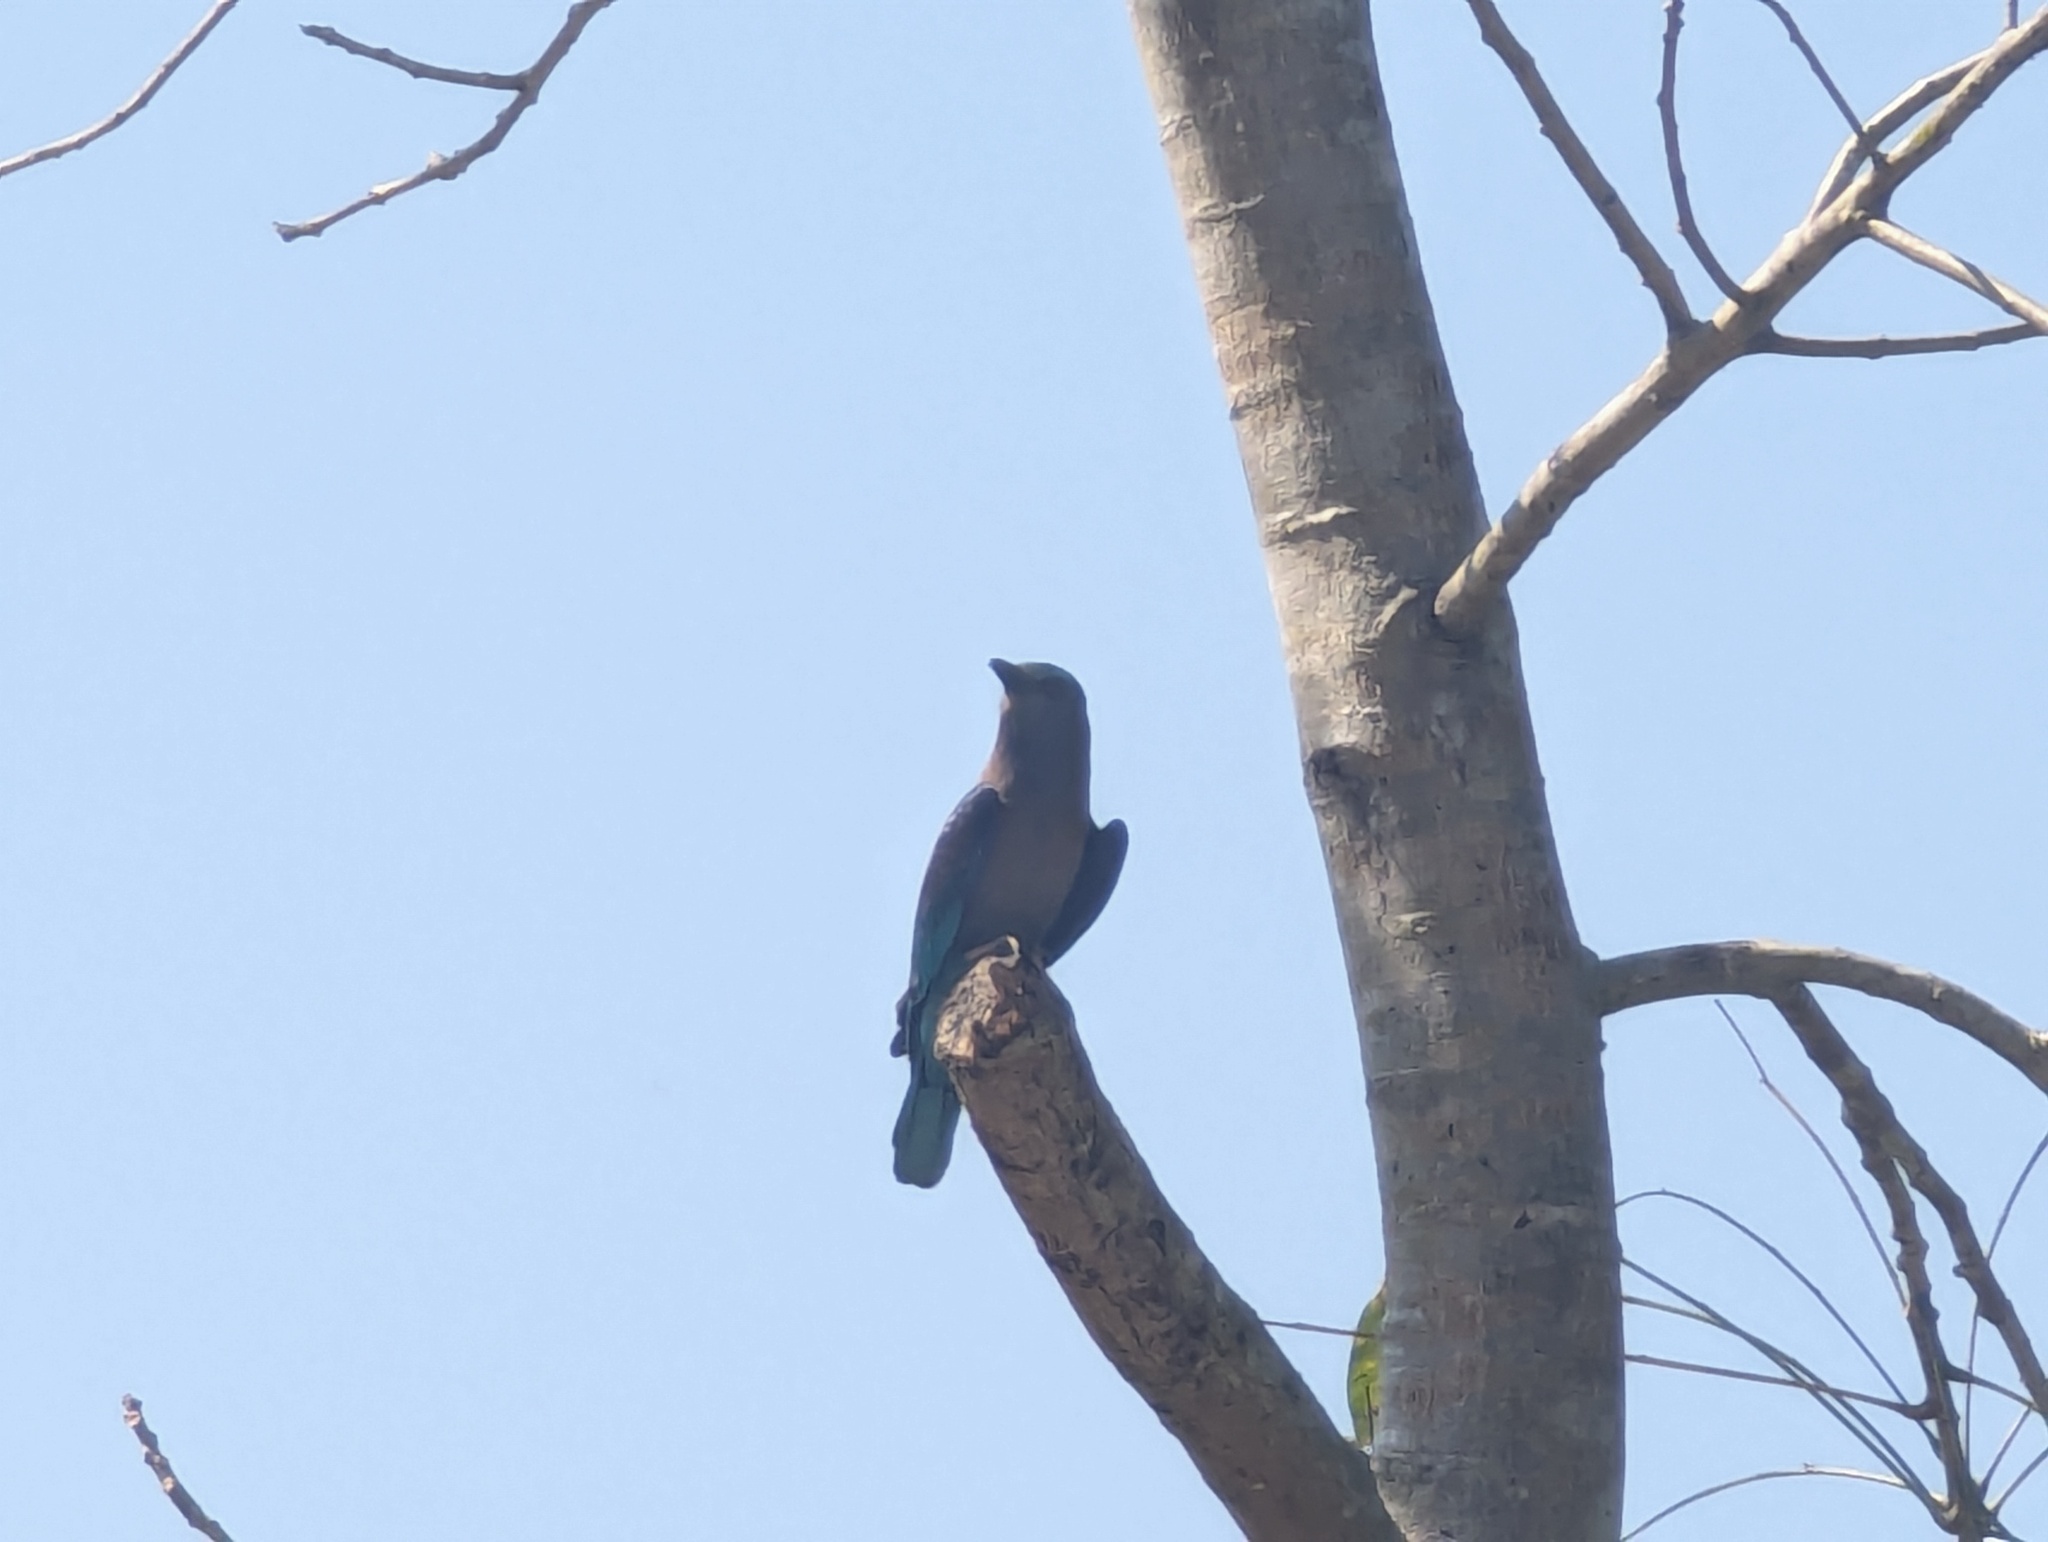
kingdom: Animalia
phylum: Chordata
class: Aves
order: Coraciiformes
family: Coraciidae
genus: Coracias
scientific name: Coracias affinis
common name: Indochinese roller
